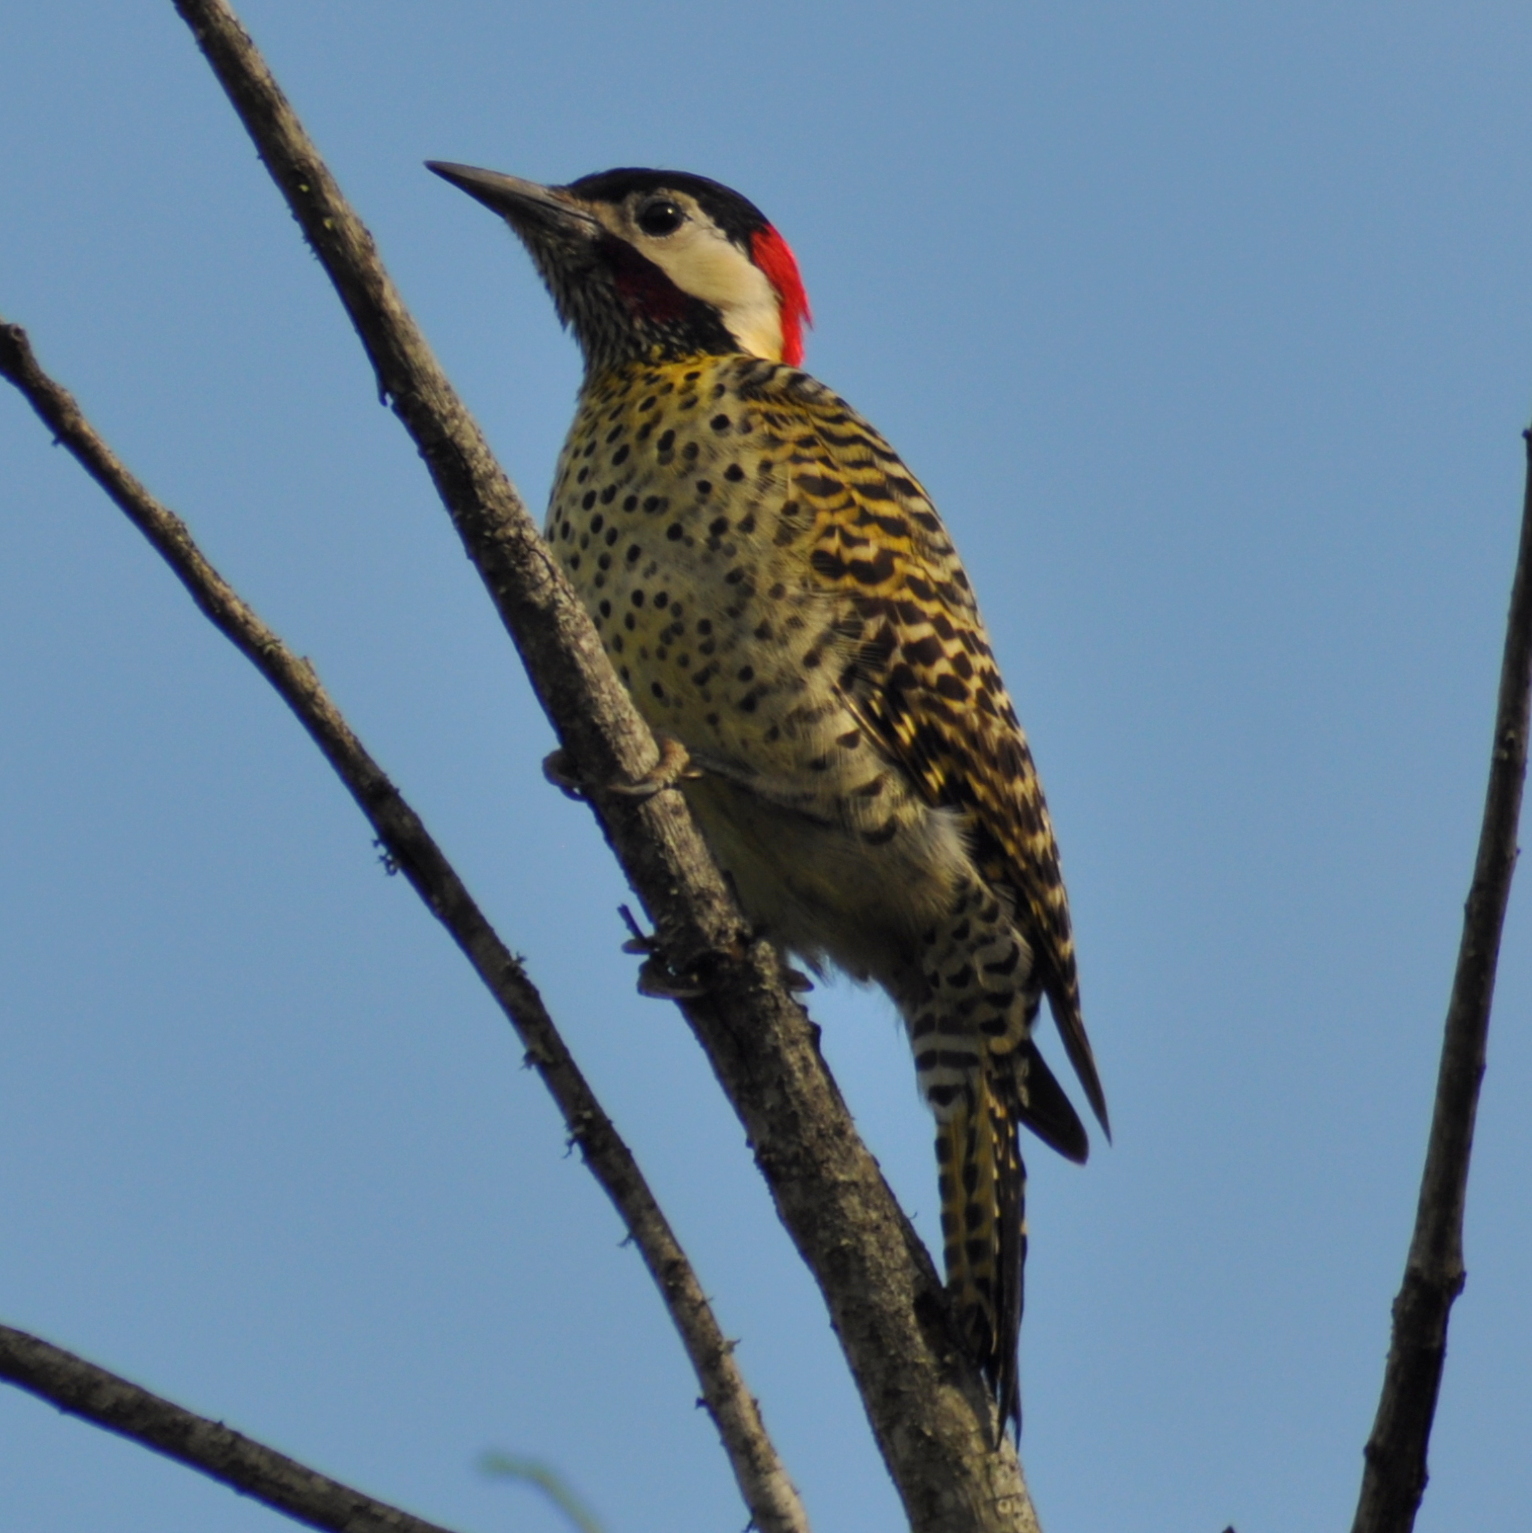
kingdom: Animalia
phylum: Chordata
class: Aves
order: Piciformes
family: Picidae
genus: Colaptes
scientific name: Colaptes melanochloros
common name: Green-barred woodpecker
